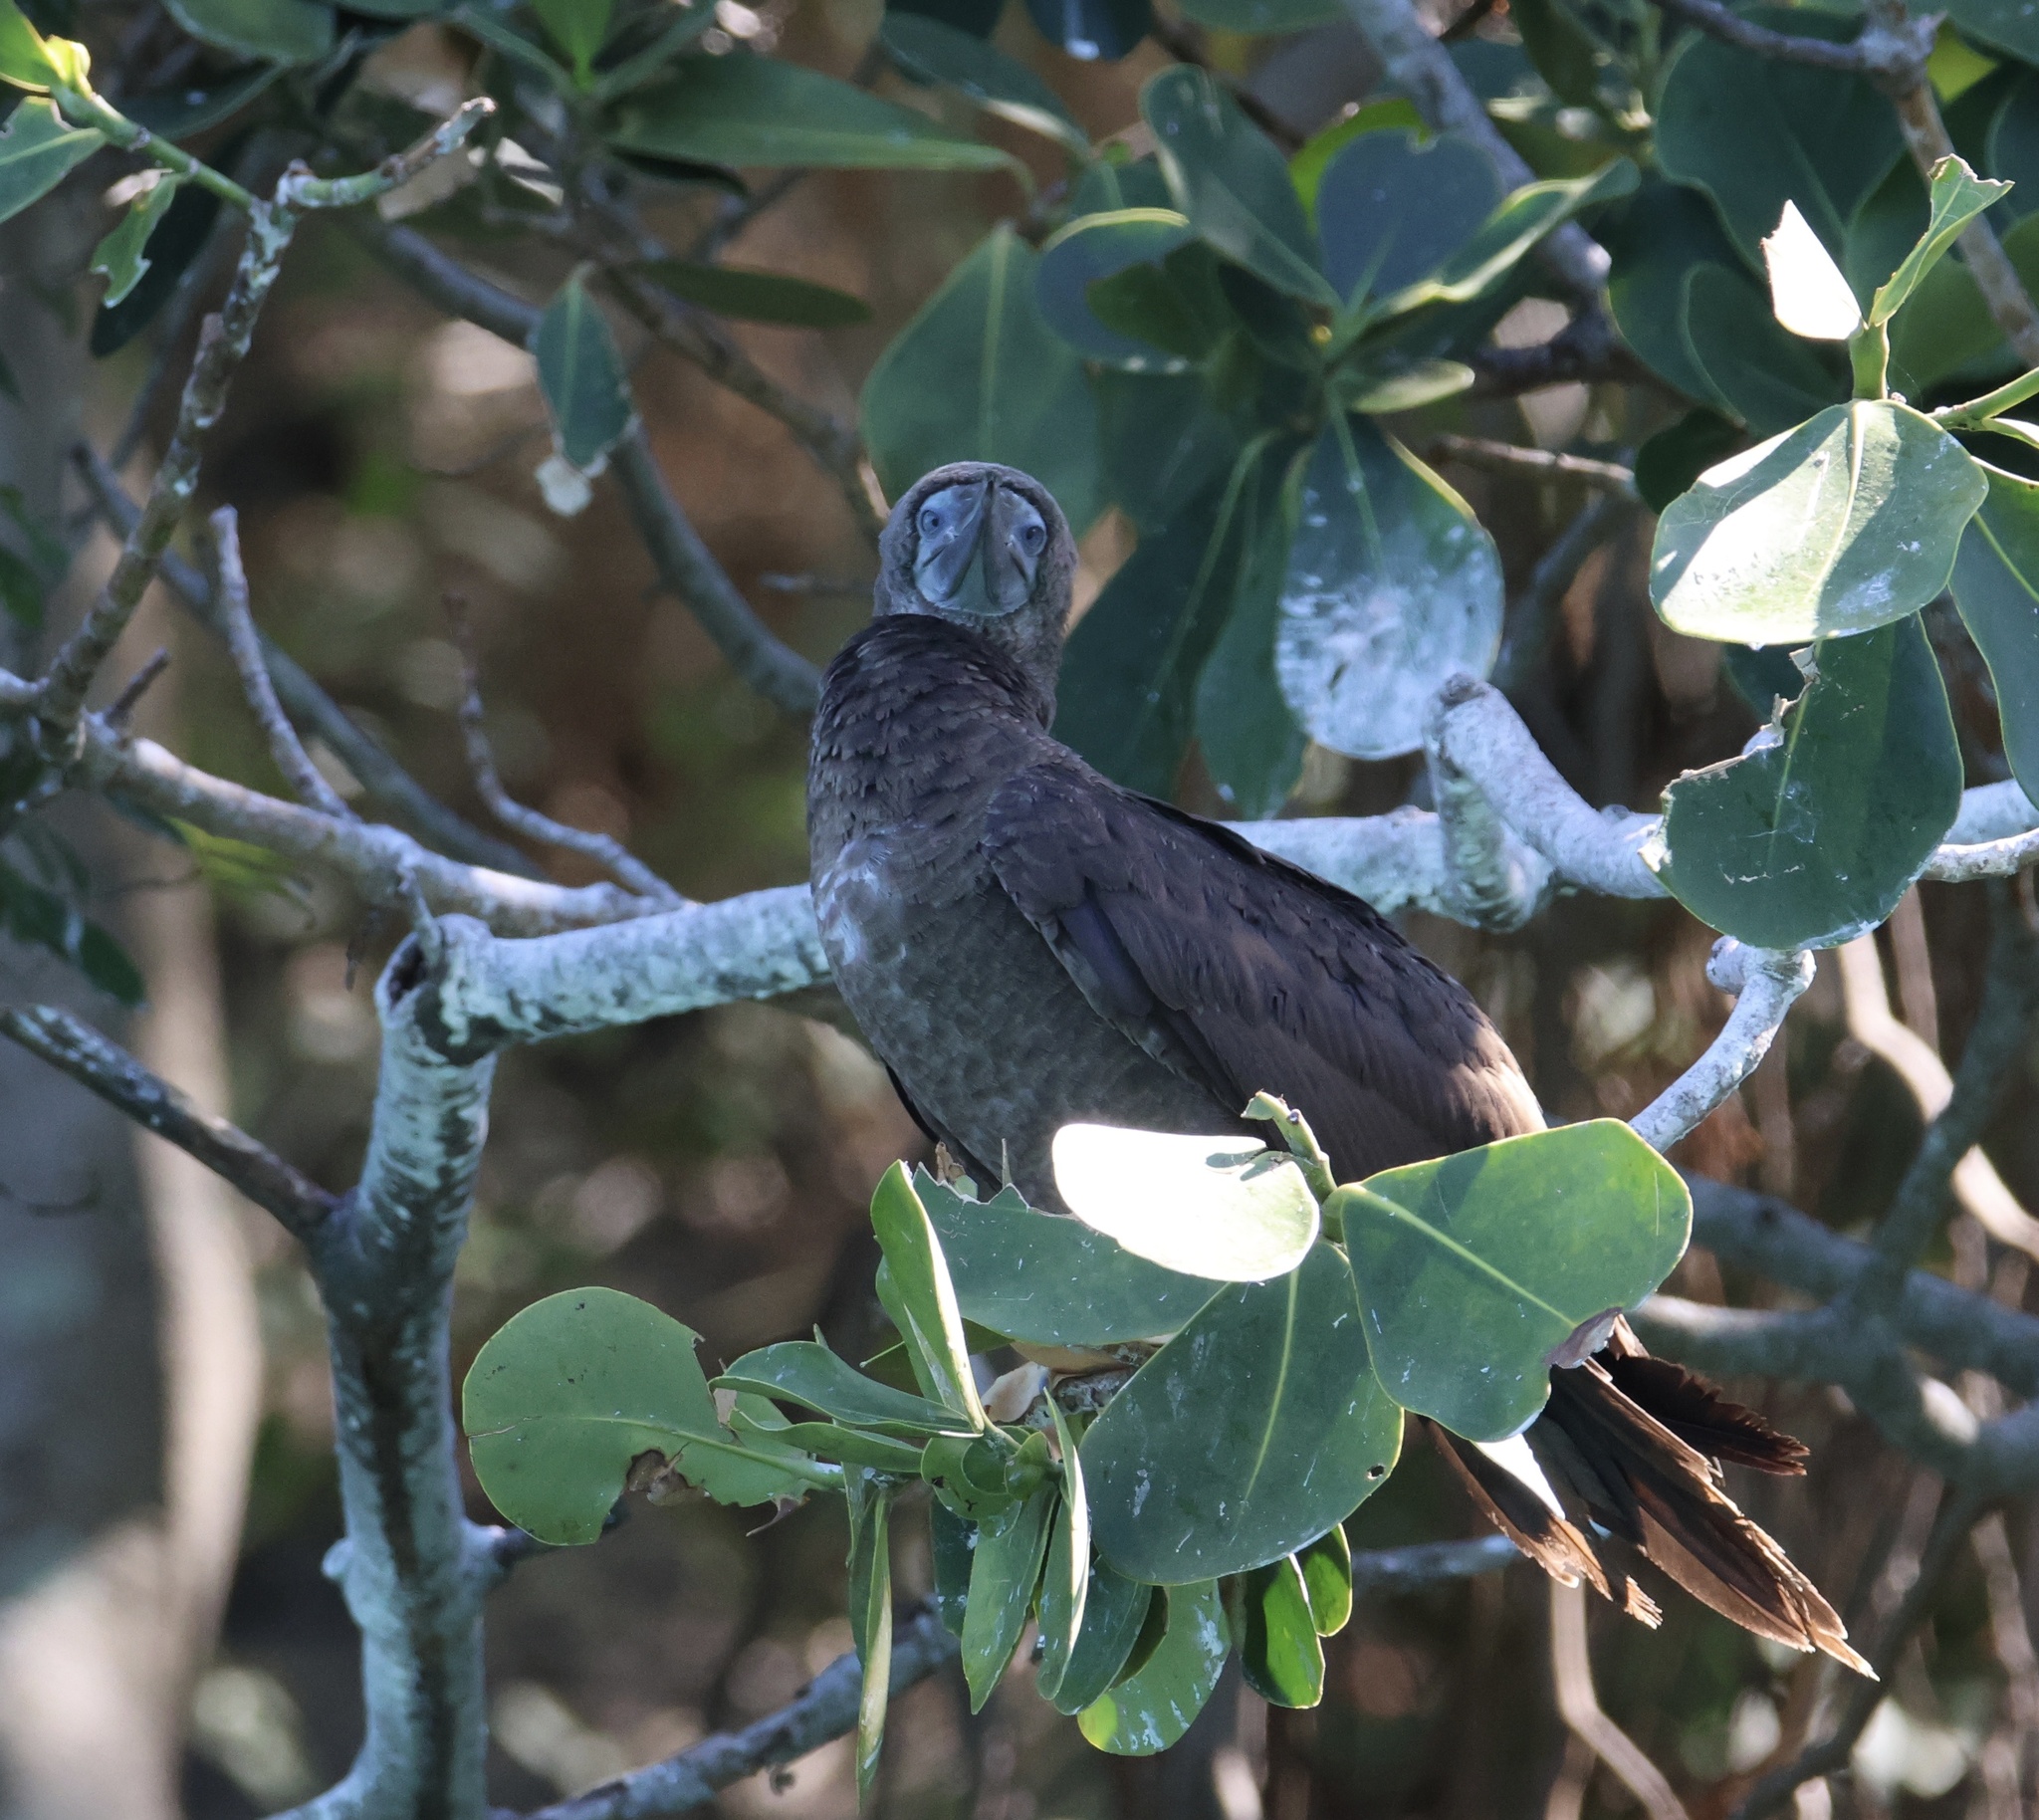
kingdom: Animalia
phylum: Chordata
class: Aves
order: Suliformes
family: Sulidae
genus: Sula
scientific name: Sula leucogaster
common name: Brown booby
